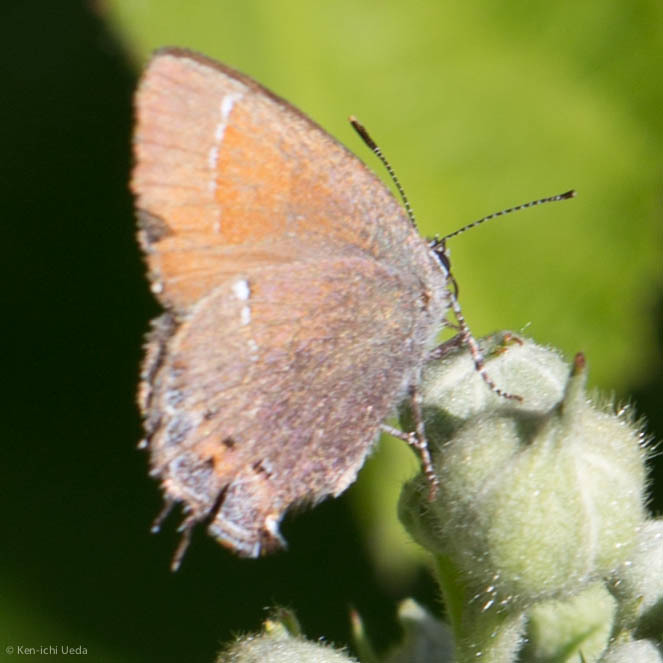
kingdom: Animalia
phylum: Arthropoda
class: Insecta
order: Lepidoptera
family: Lycaenidae
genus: Mitoura
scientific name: Mitoura nelsoni
